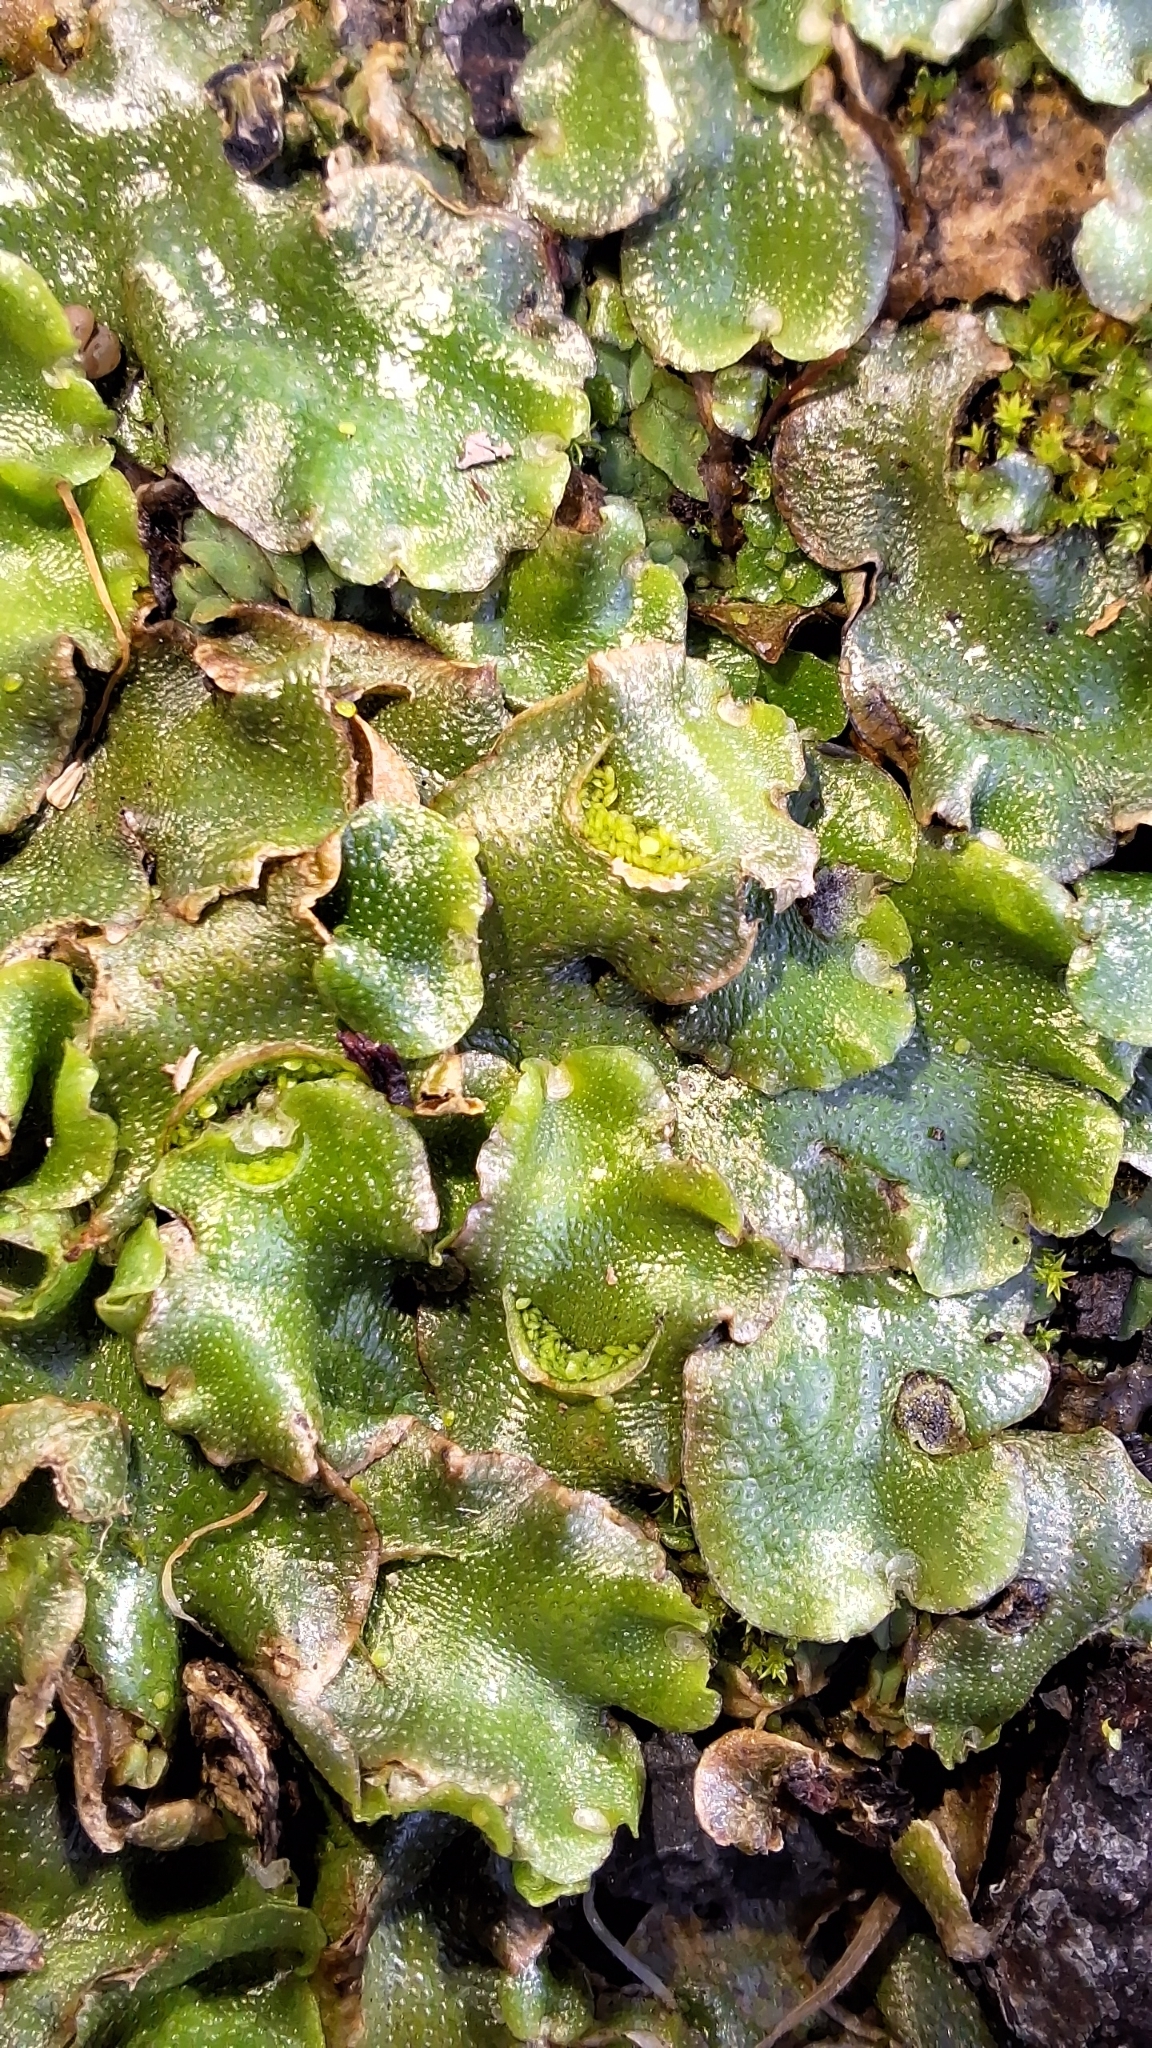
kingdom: Plantae
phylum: Marchantiophyta
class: Marchantiopsida
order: Lunulariales
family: Lunulariaceae
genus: Lunularia
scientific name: Lunularia cruciata
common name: Crescent-cup liverwort
